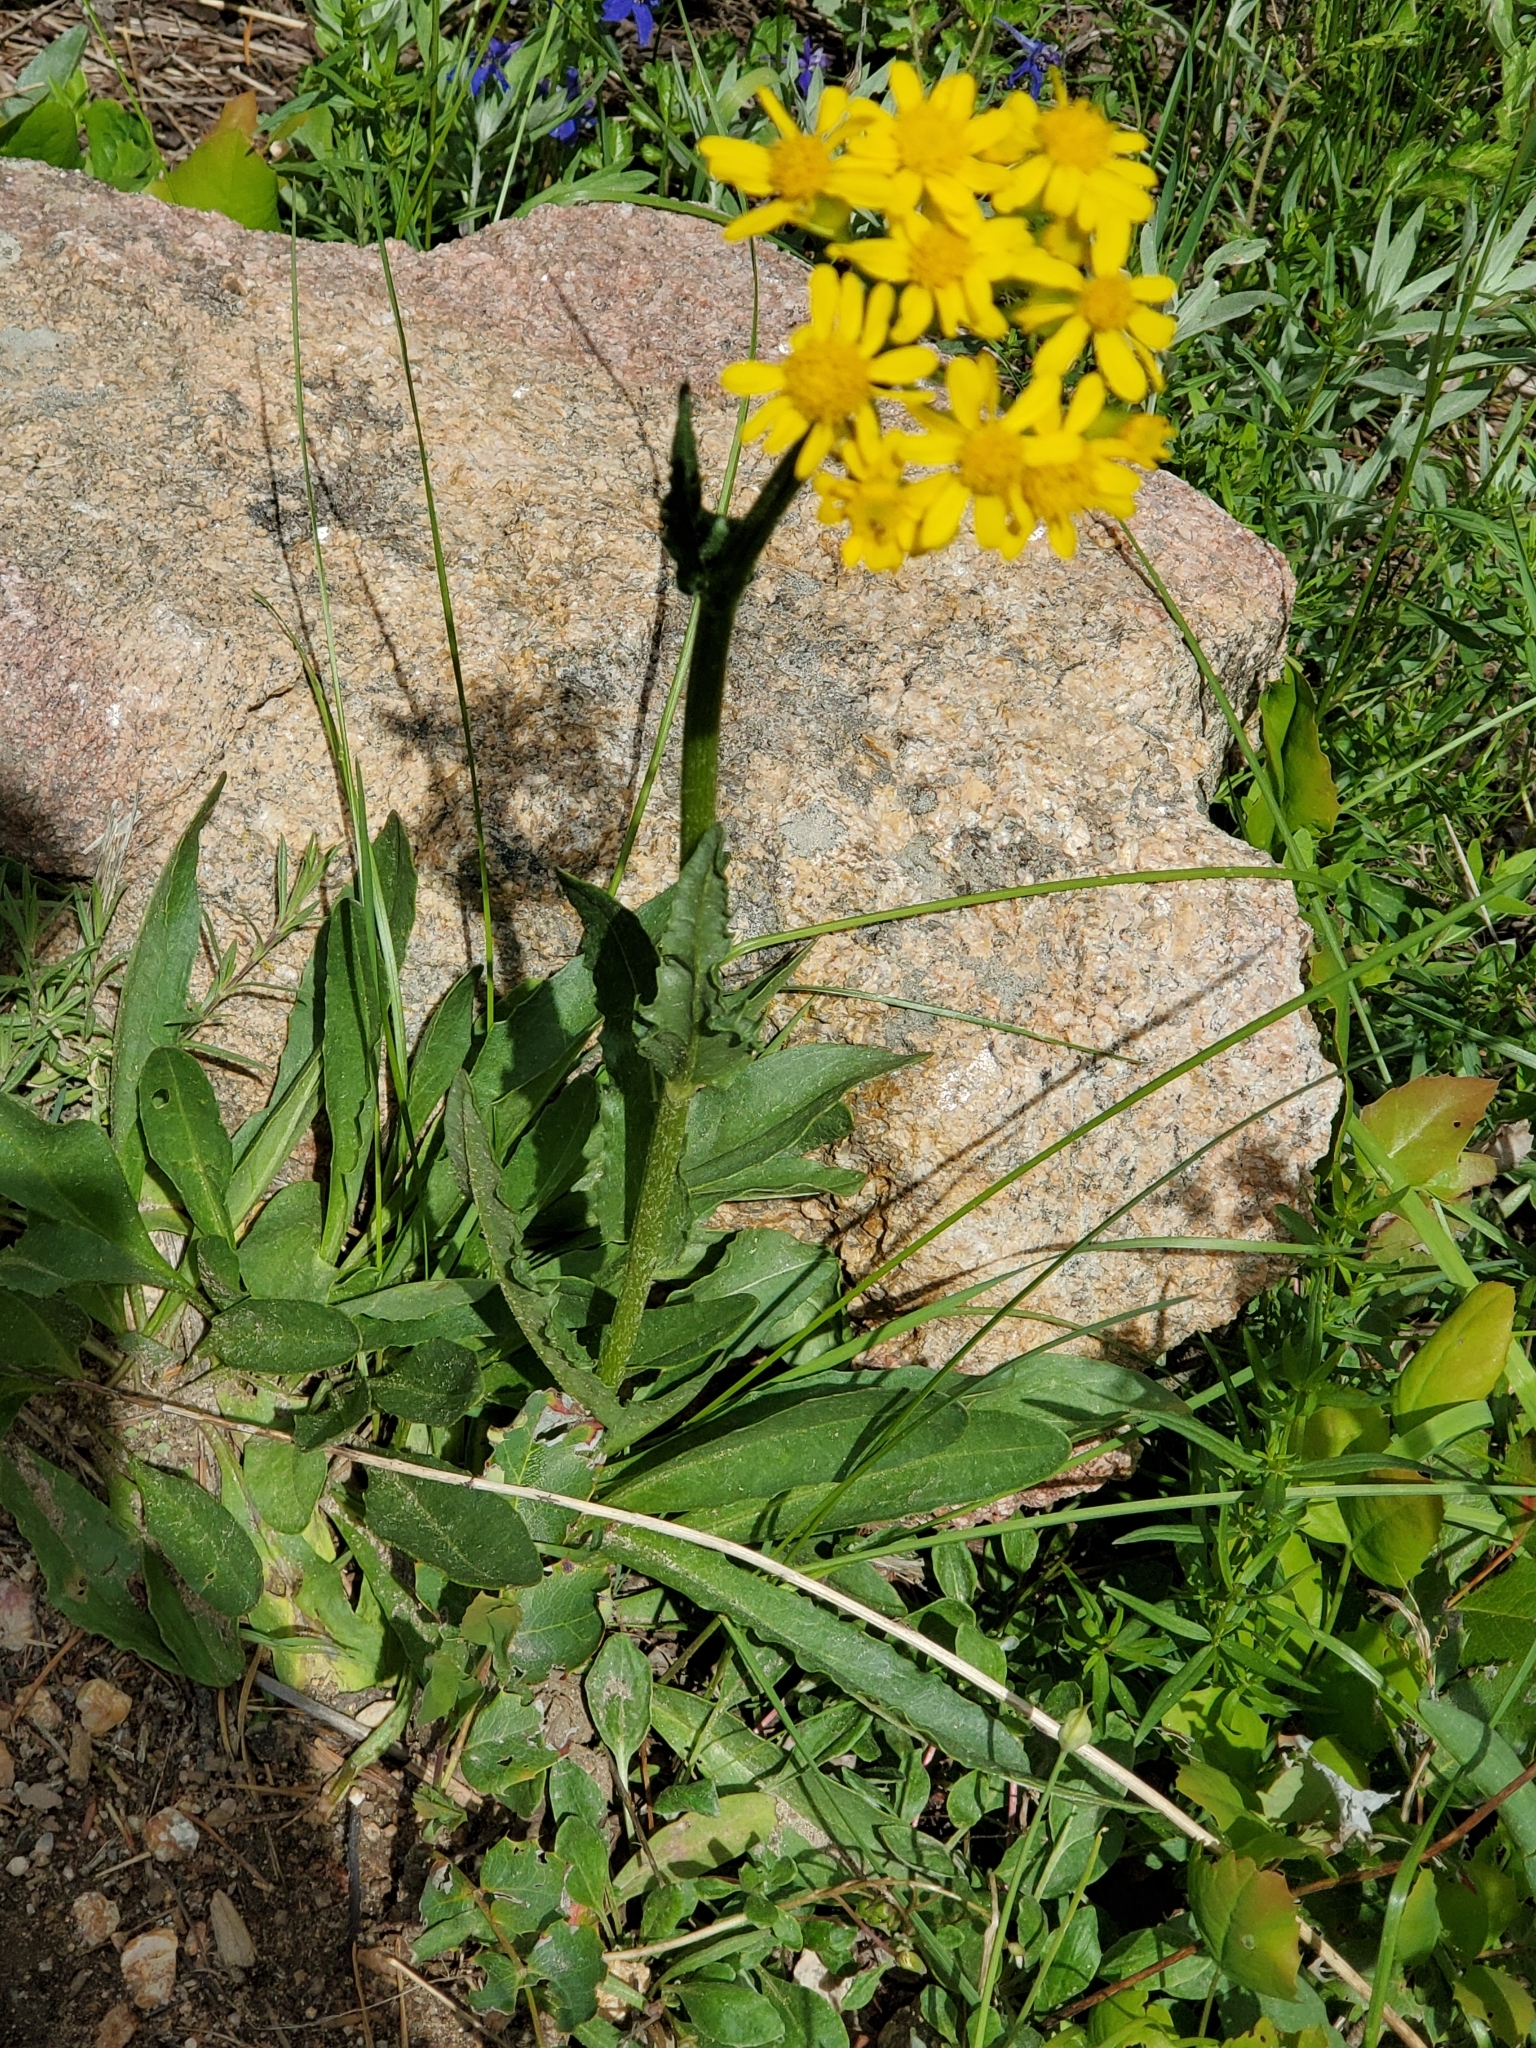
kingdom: Plantae
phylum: Tracheophyta
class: Magnoliopsida
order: Asterales
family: Asteraceae
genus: Senecio
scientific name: Senecio integerrimus
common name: Gaugeplant
